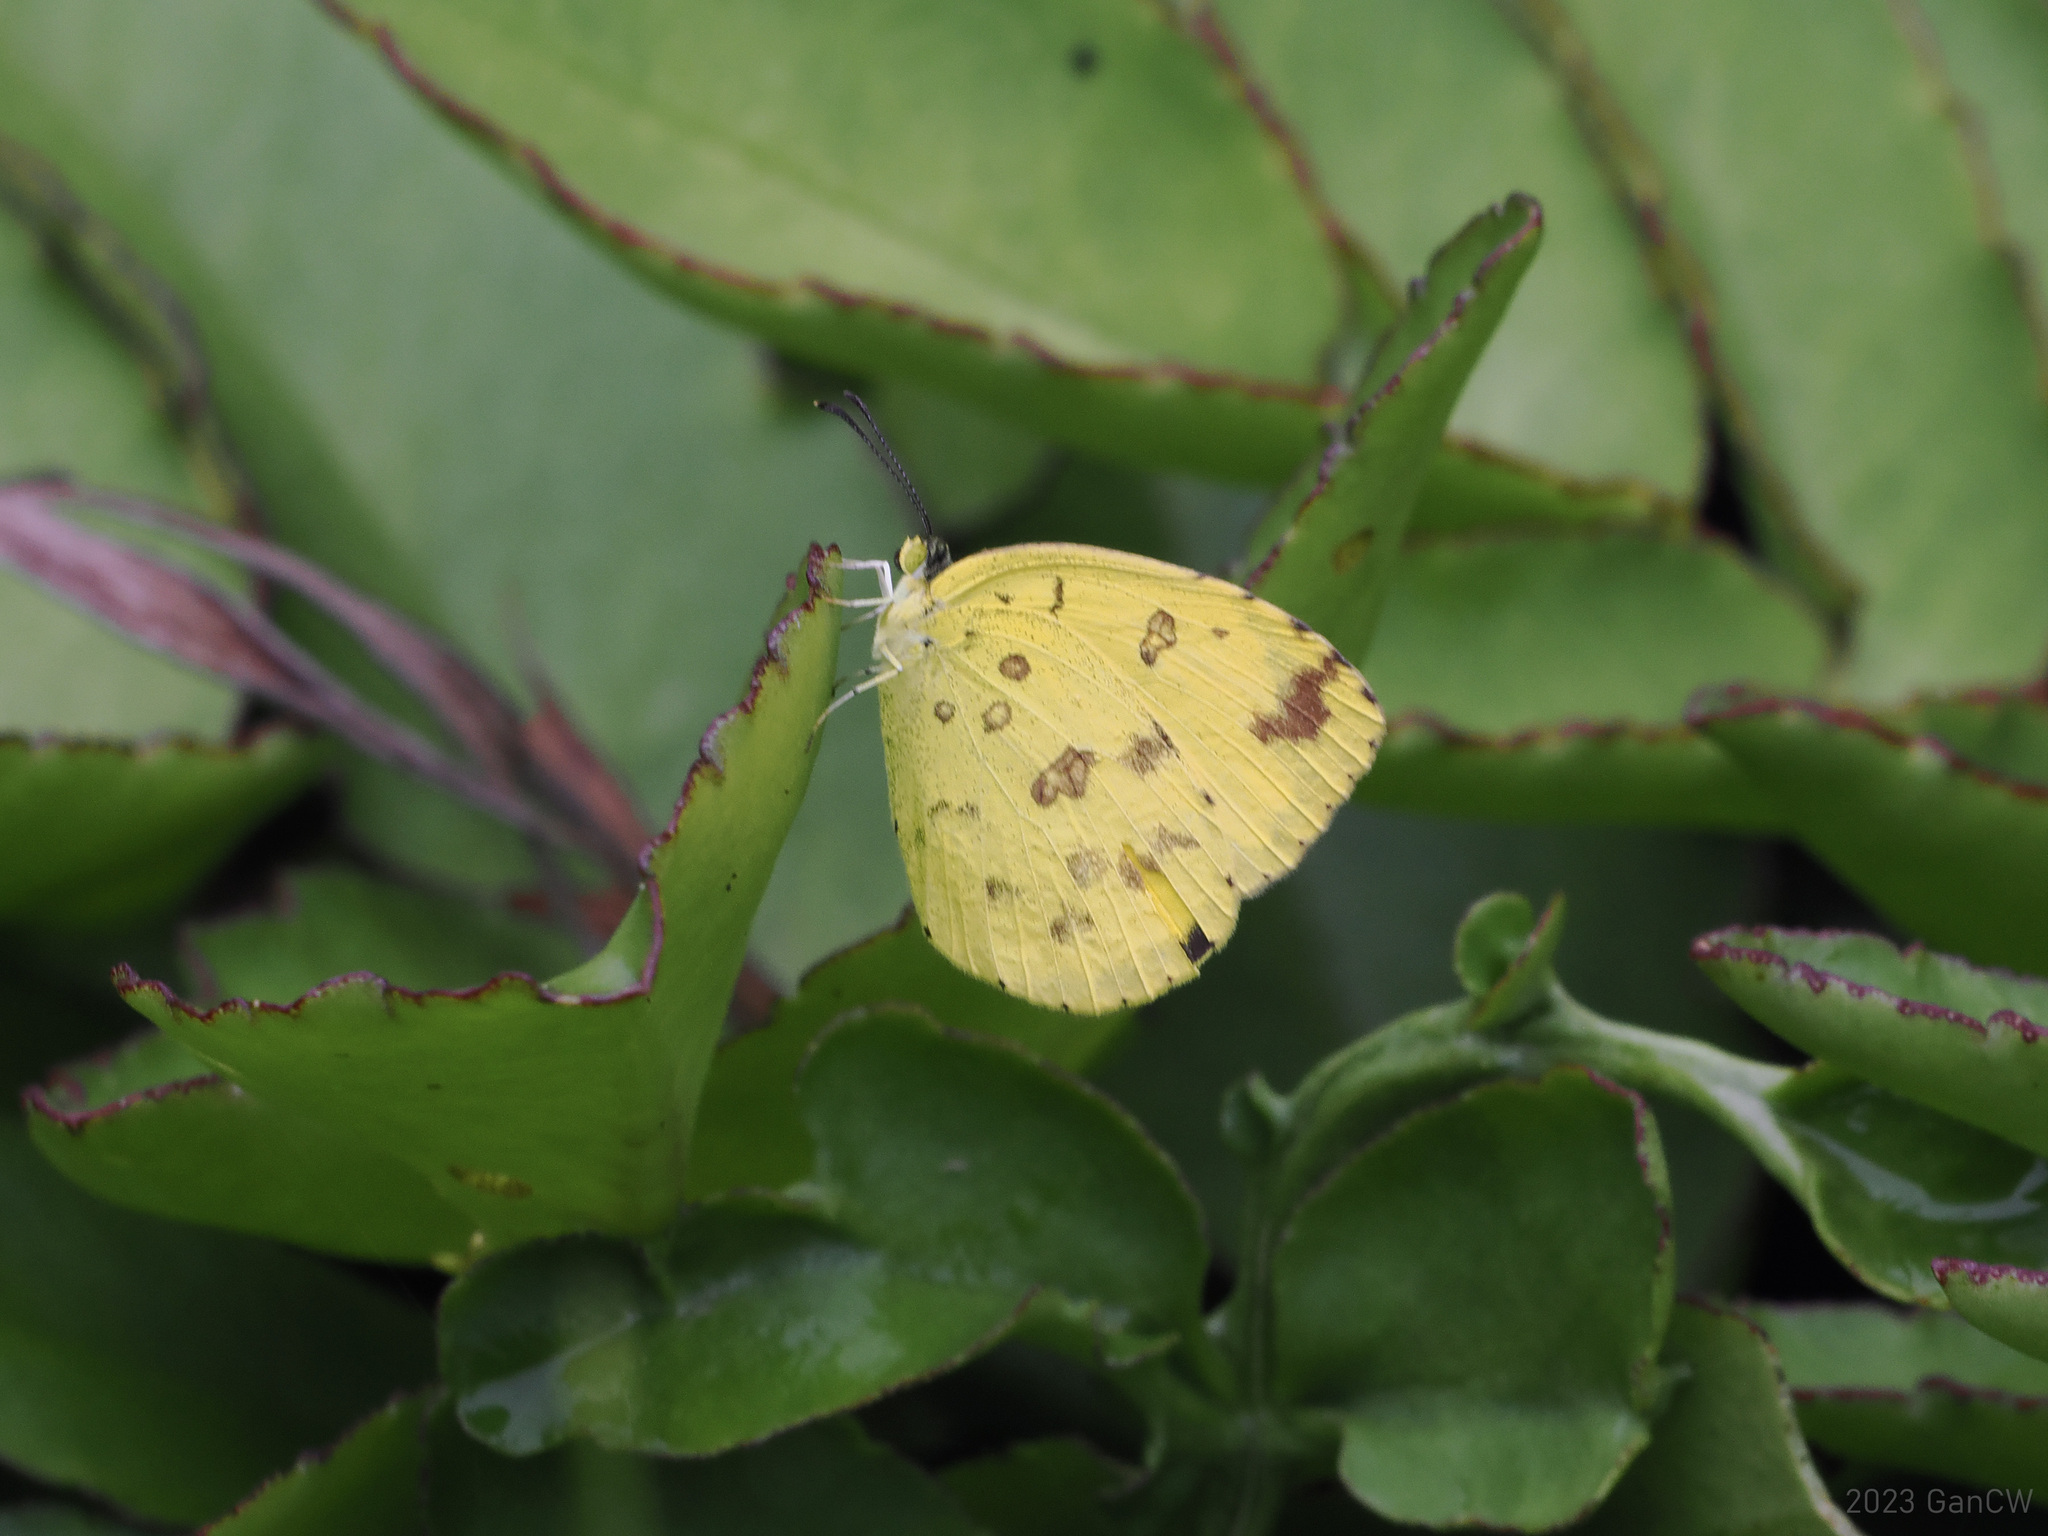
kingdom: Animalia
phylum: Arthropoda
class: Insecta
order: Lepidoptera
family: Pieridae
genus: Eurema
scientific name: Eurema hecabe
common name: Pale grass yellow
